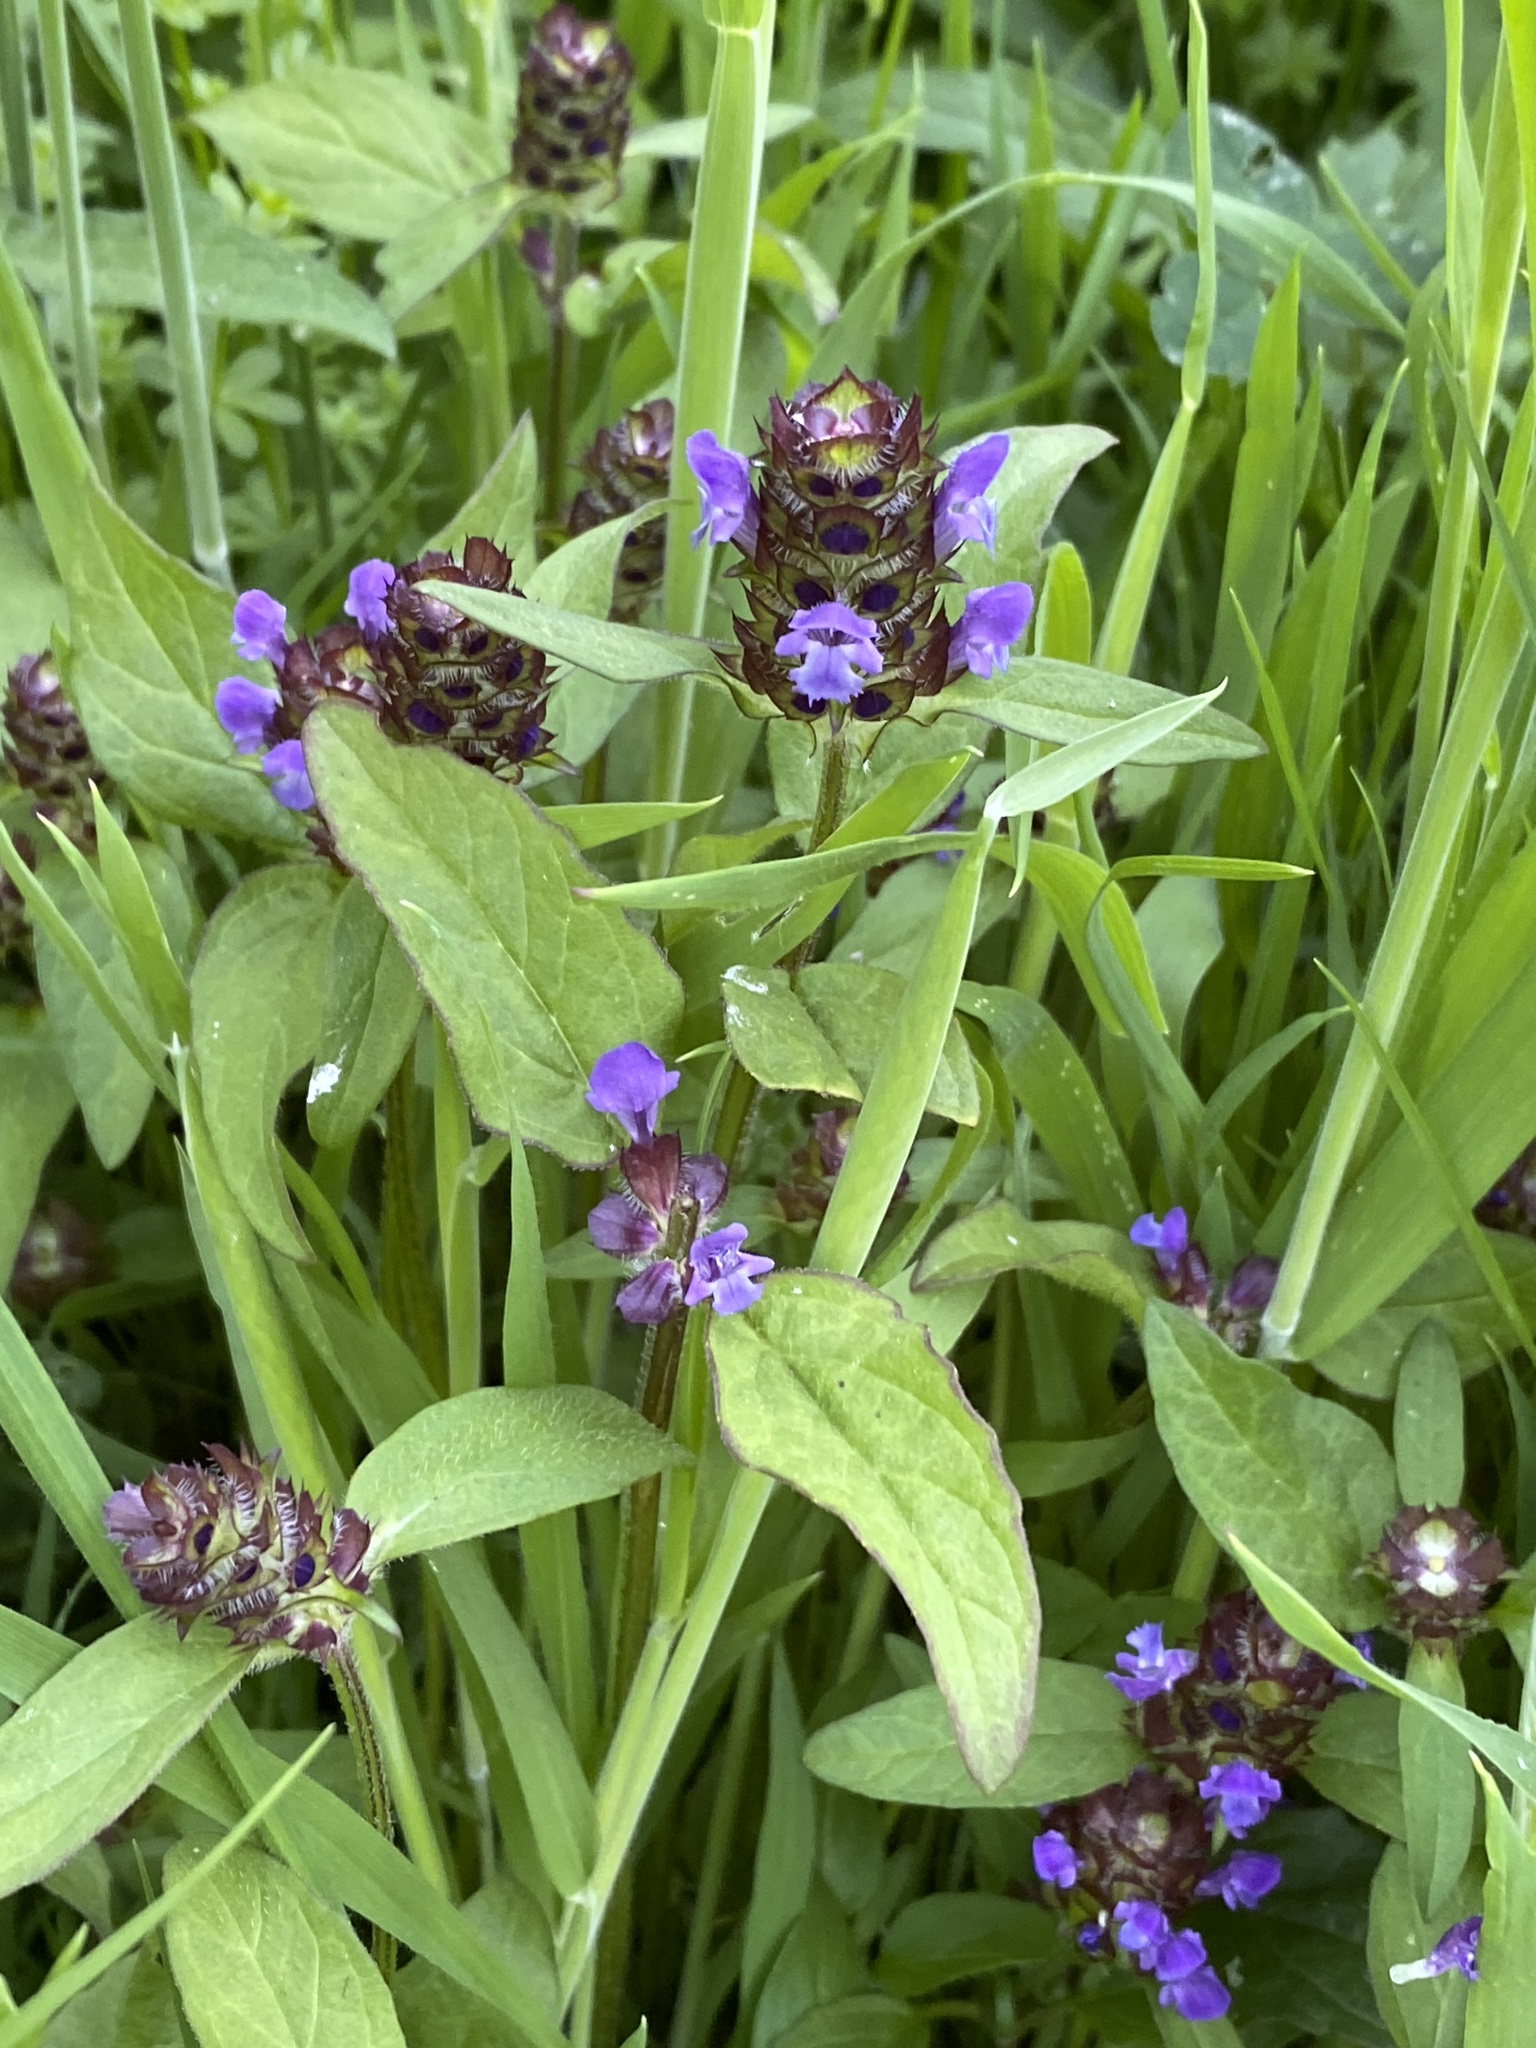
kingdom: Plantae
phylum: Tracheophyta
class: Magnoliopsida
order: Lamiales
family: Lamiaceae
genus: Prunella
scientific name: Prunella vulgaris
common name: Heal-all
